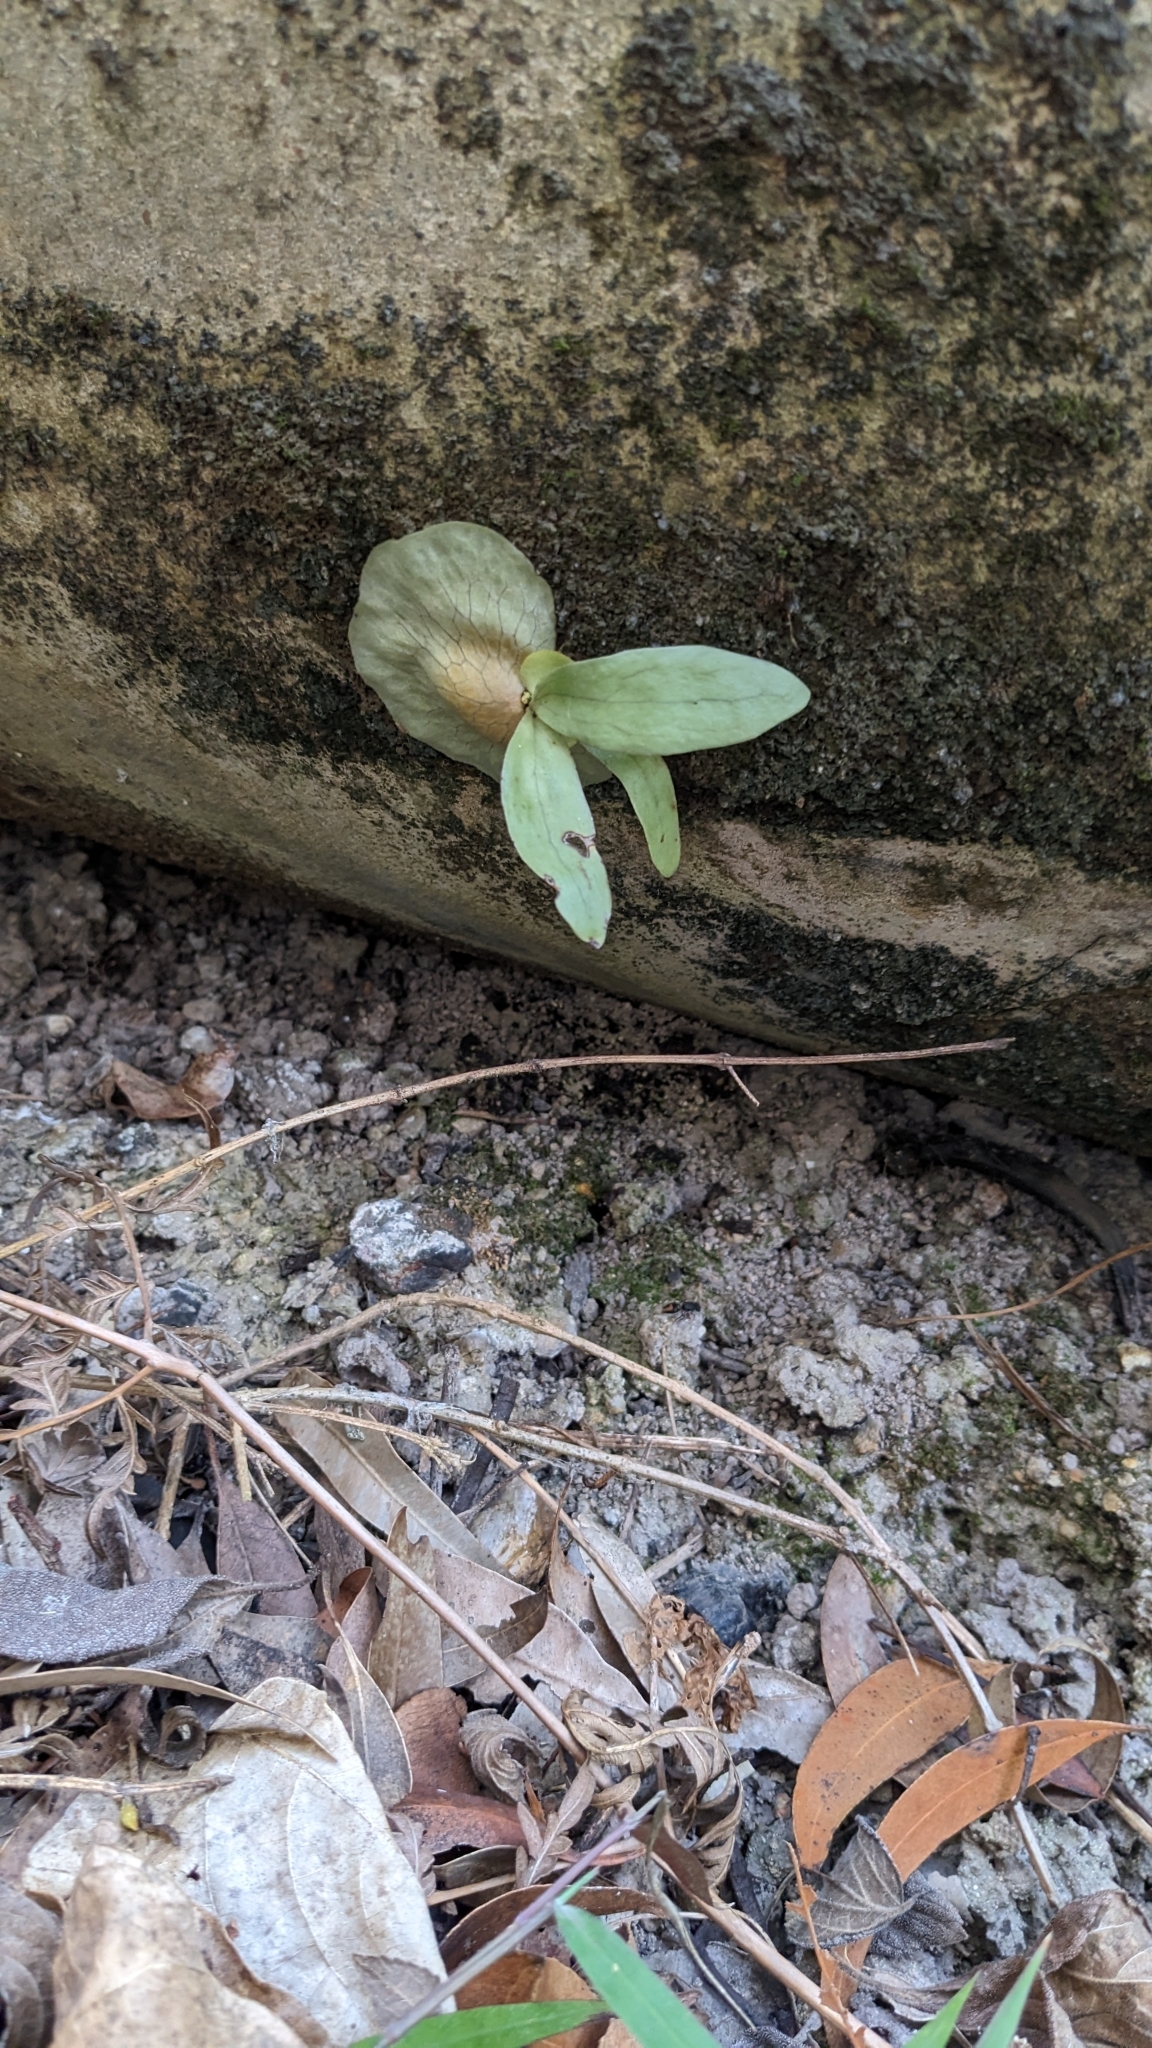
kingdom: Plantae
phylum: Tracheophyta
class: Polypodiopsida
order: Polypodiales
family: Polypodiaceae
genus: Platycerium
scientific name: Platycerium bifurcatum
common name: Elkhorn fern
